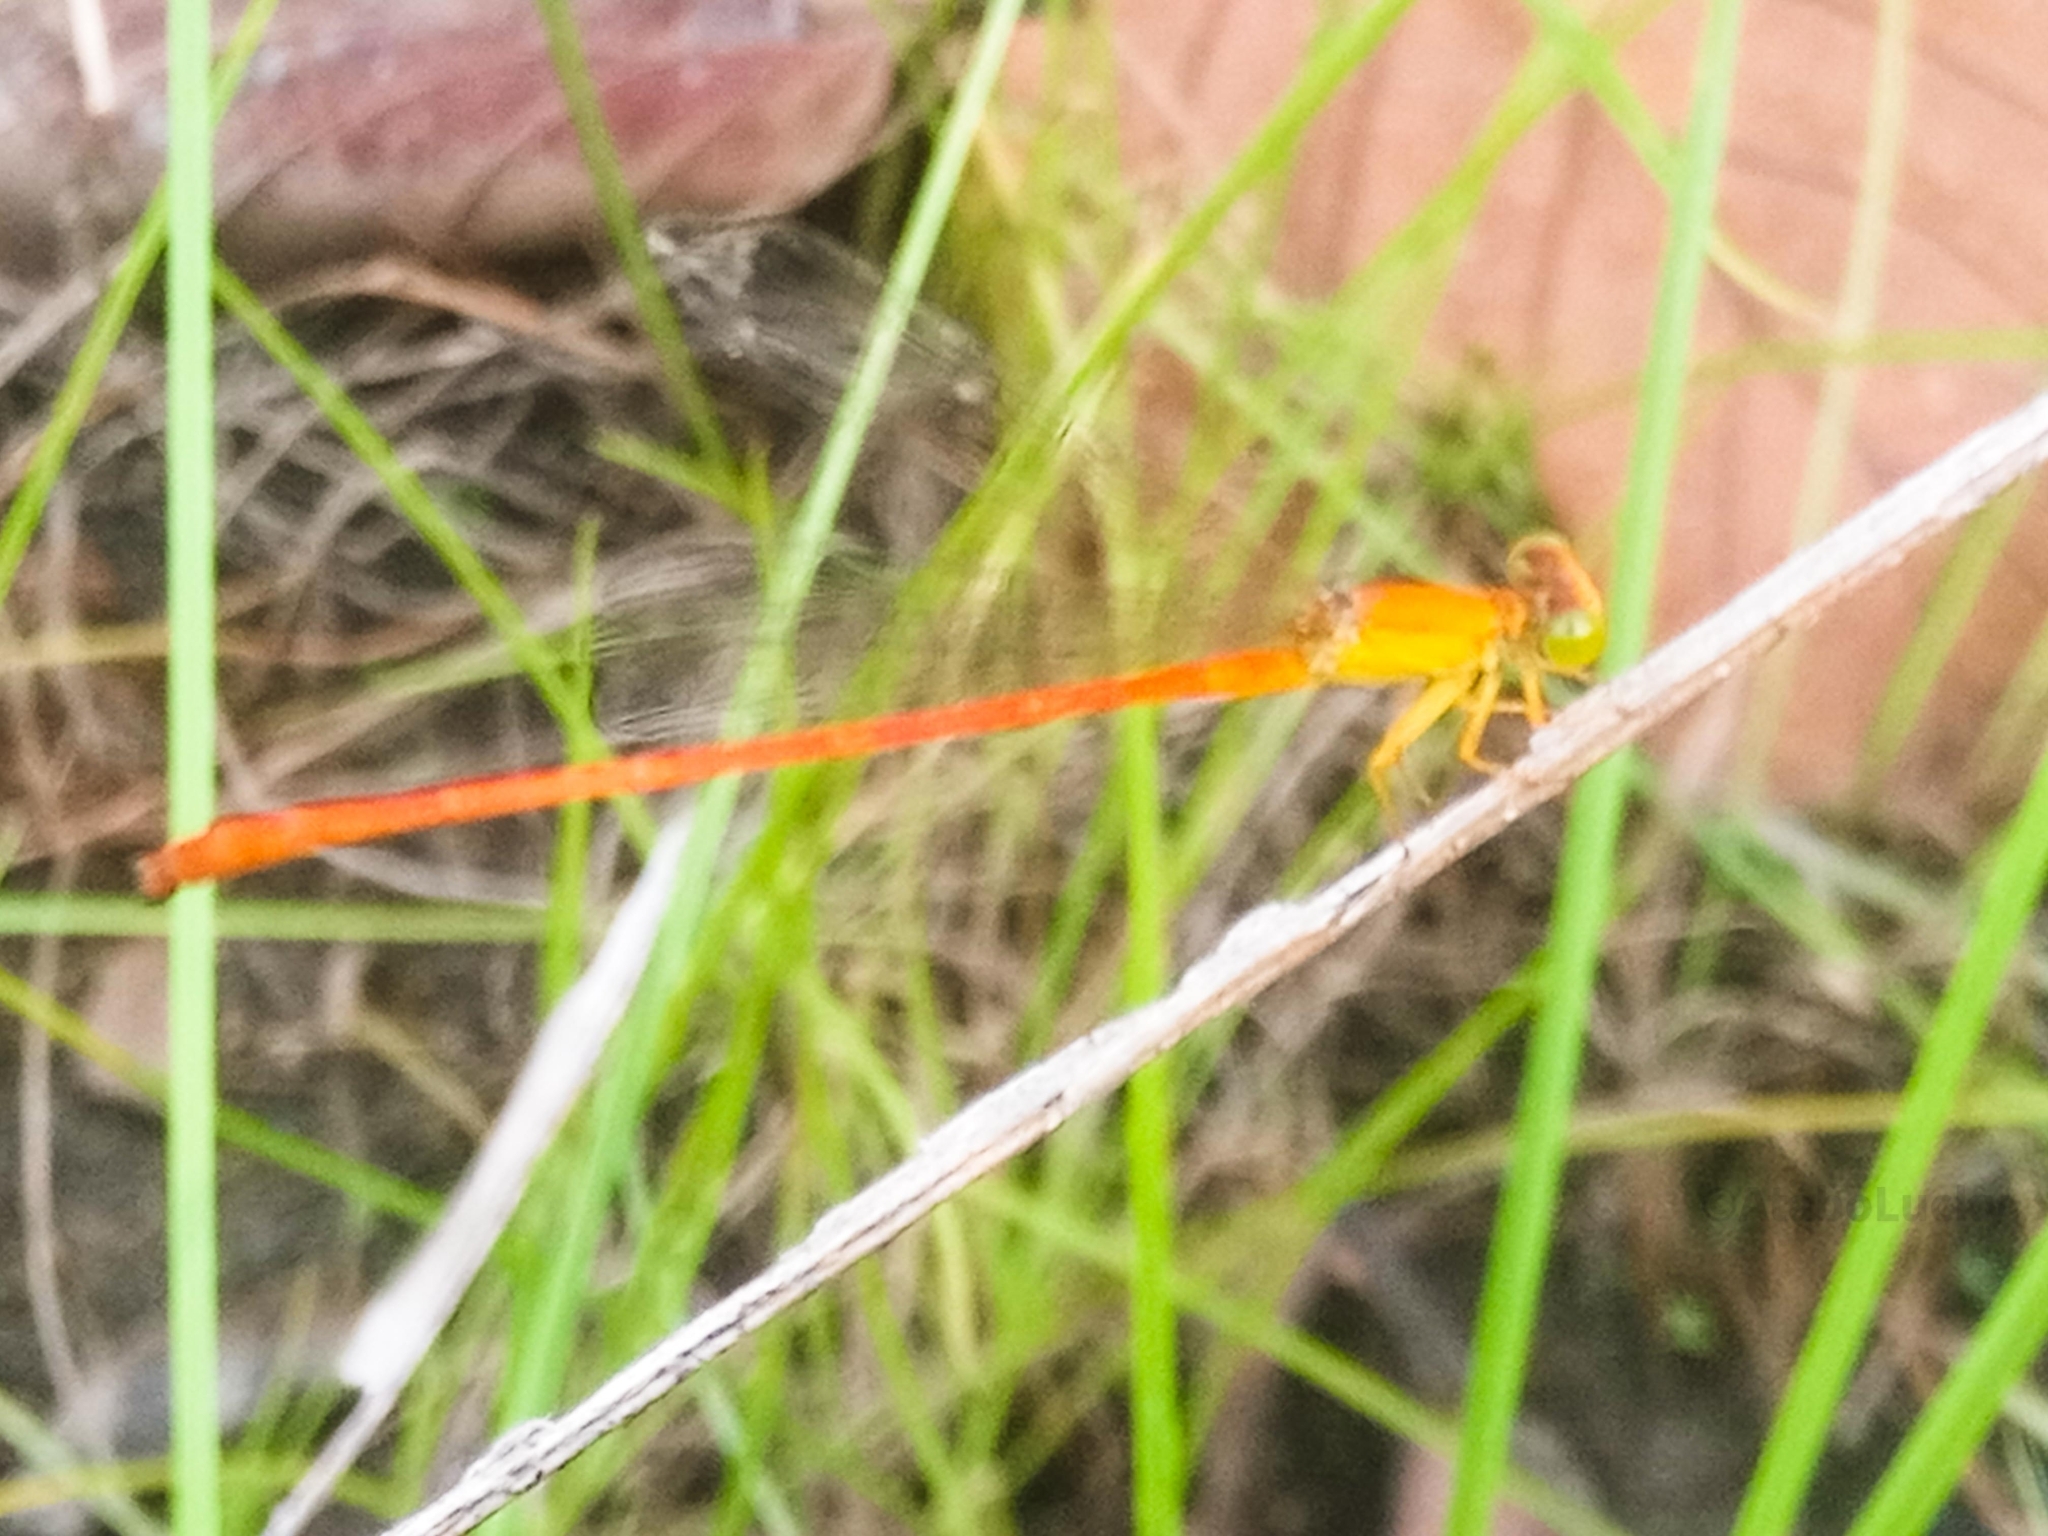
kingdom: Animalia
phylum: Arthropoda
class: Insecta
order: Odonata
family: Coenagrionidae
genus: Ceriagrion
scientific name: Ceriagrion glabrum
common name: Common pond damsel
